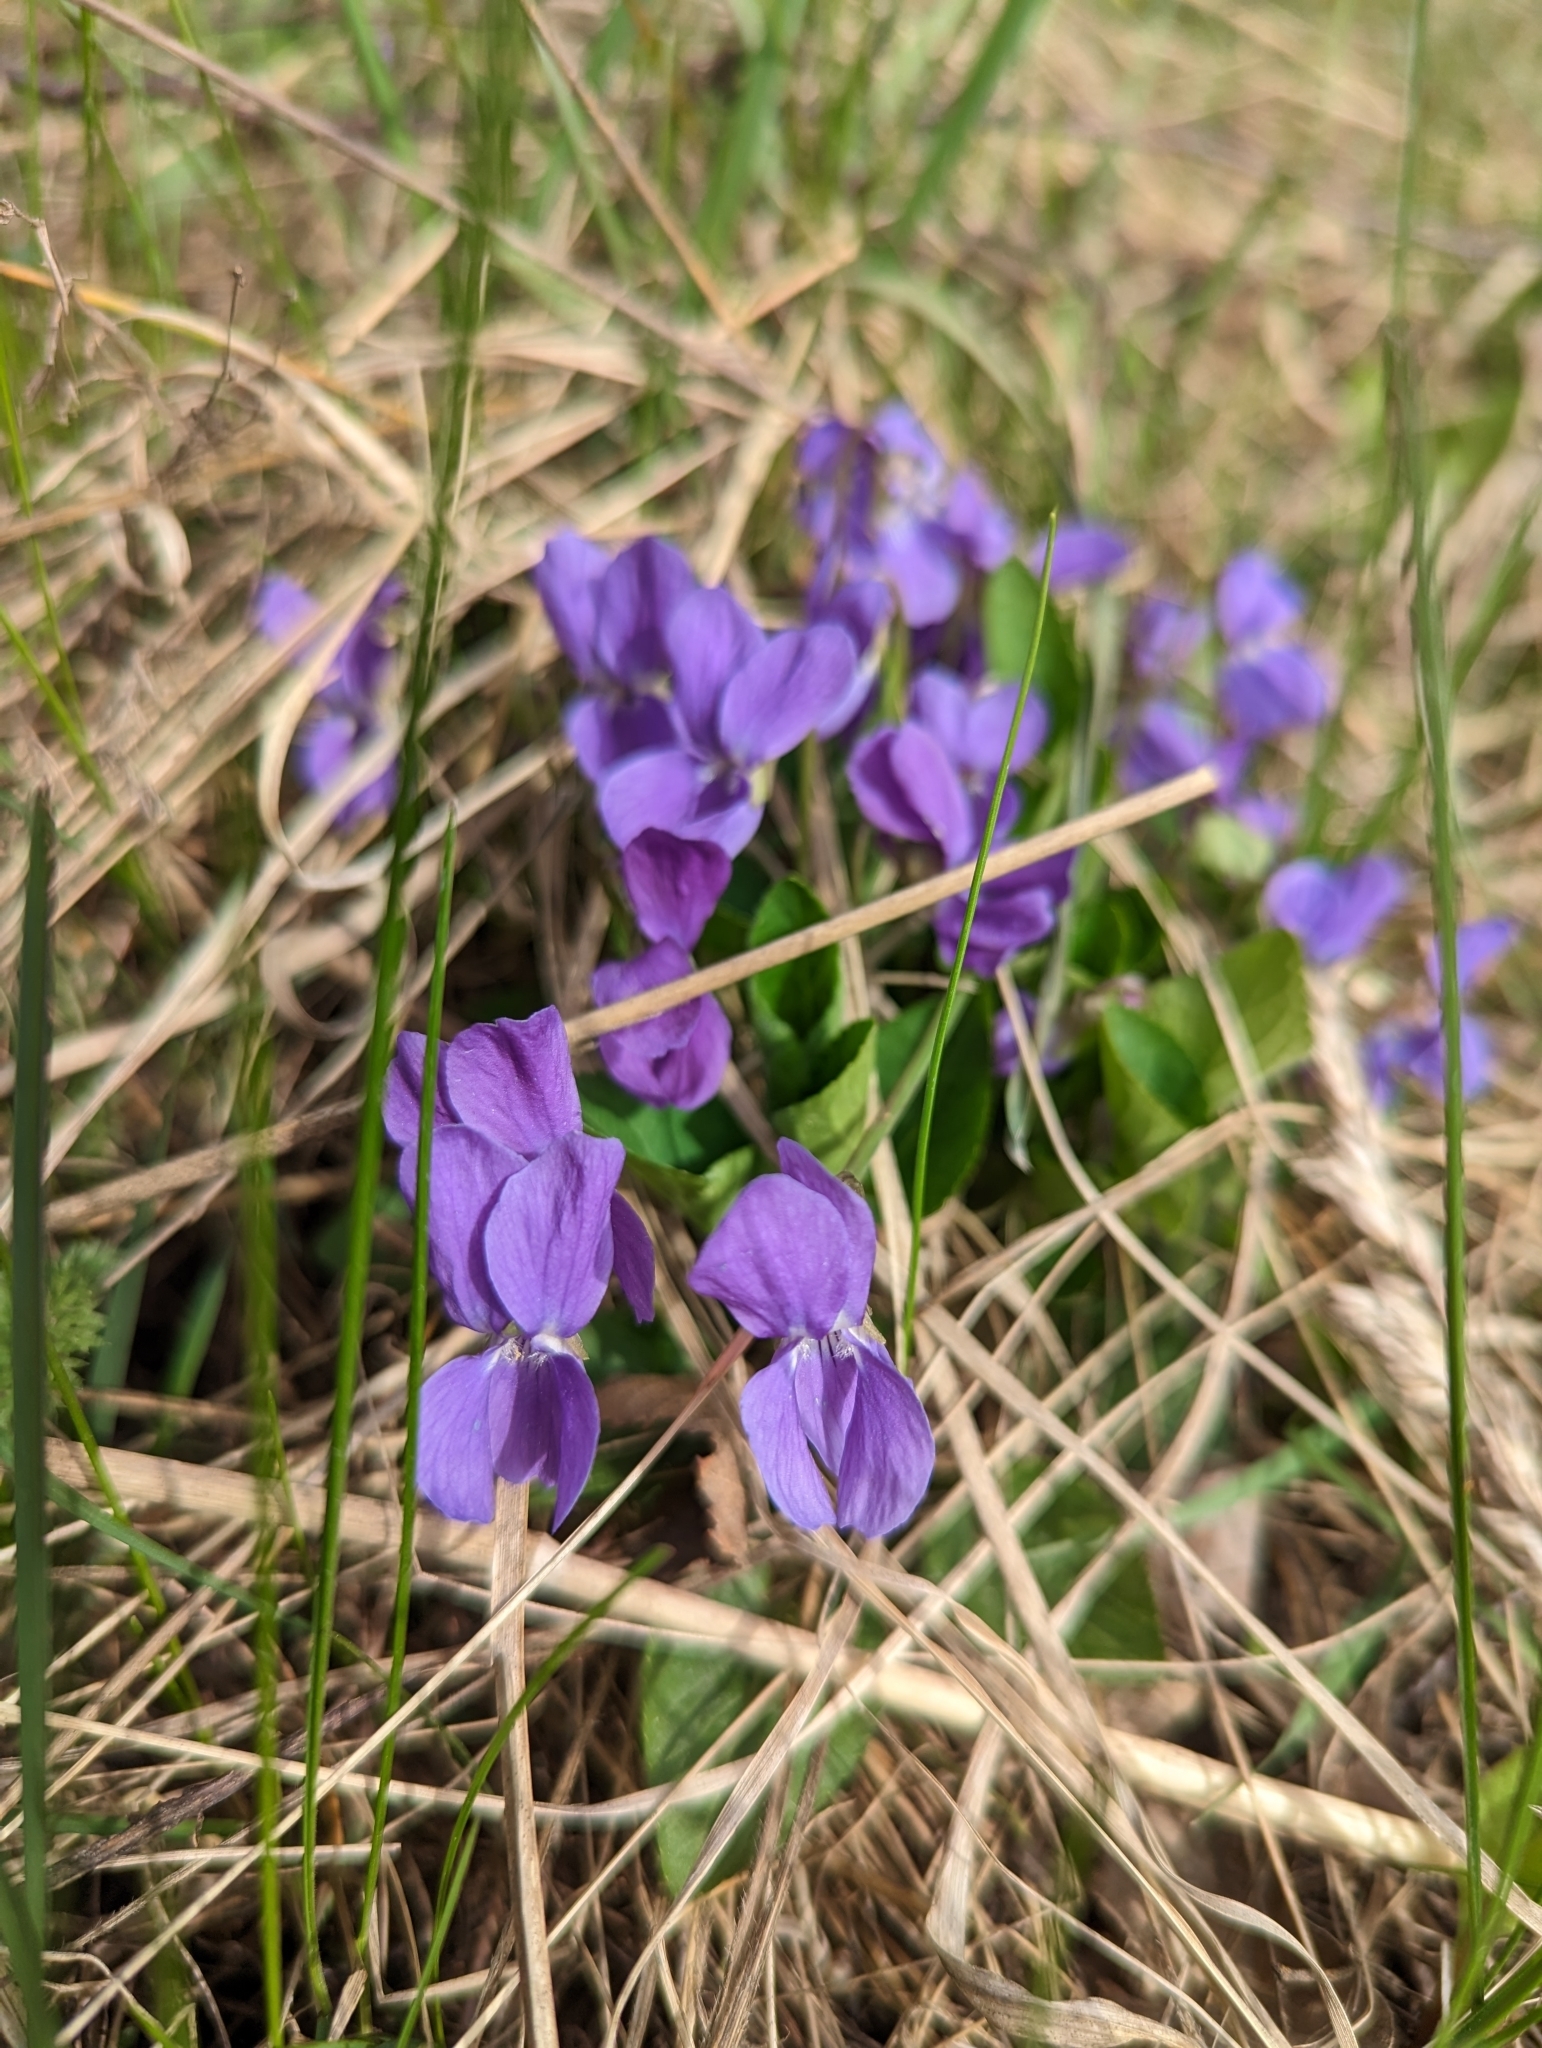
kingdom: Plantae
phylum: Tracheophyta
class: Magnoliopsida
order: Malpighiales
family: Violaceae
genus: Viola
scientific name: Viola hirta
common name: Hairy violet
